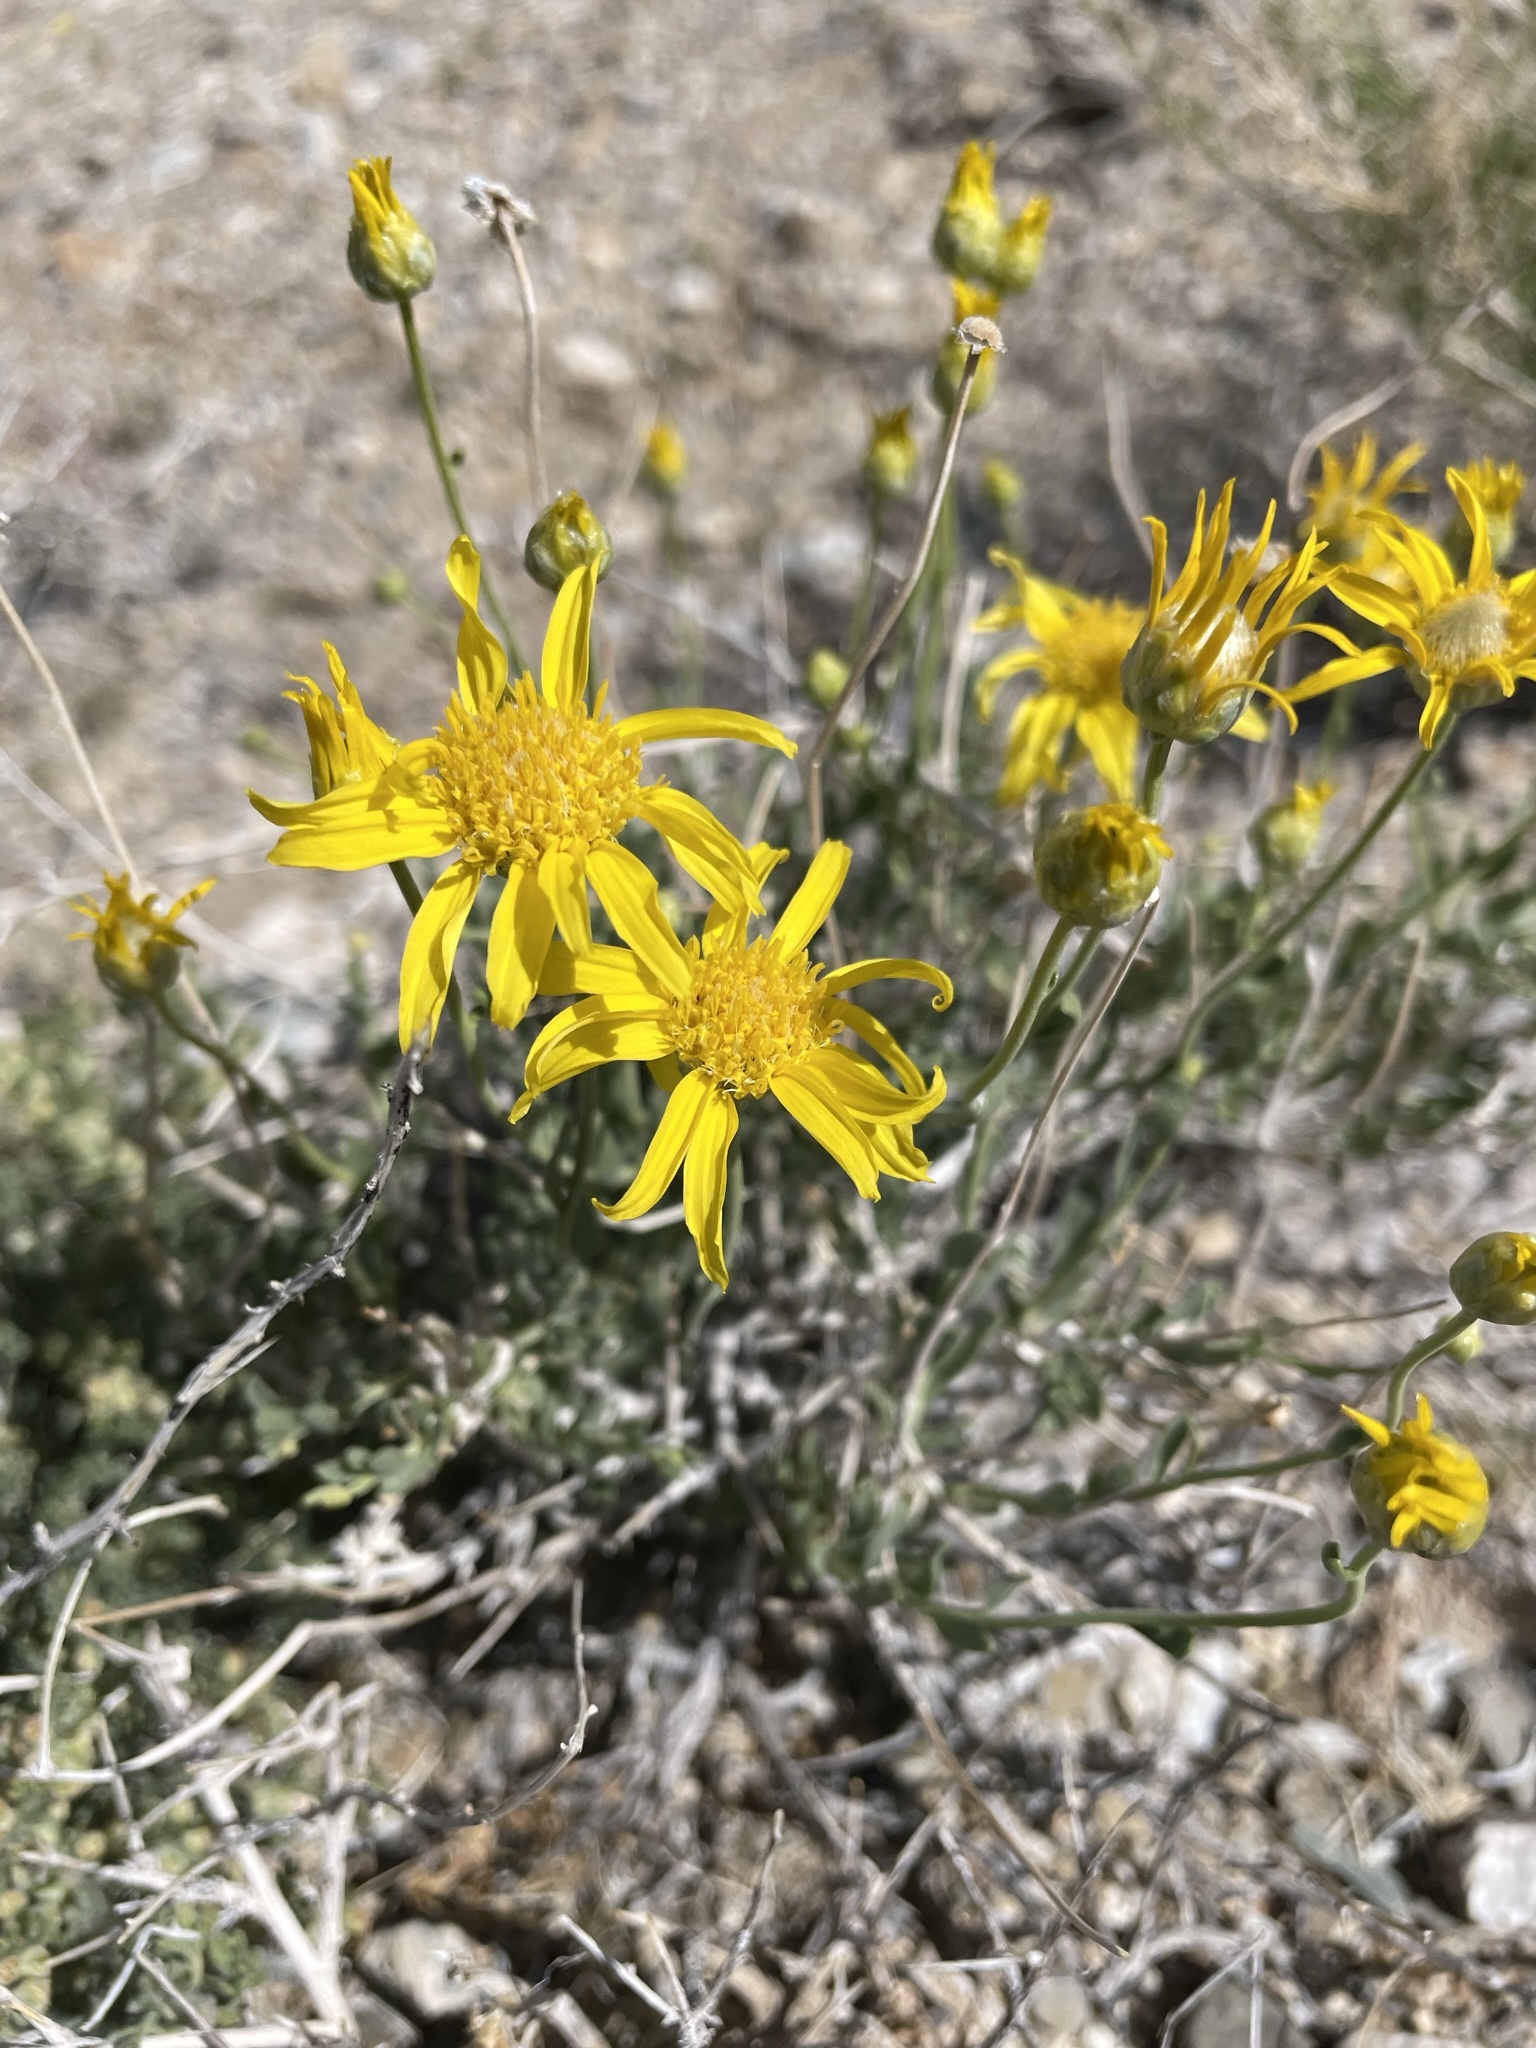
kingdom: Plantae
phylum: Tracheophyta
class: Magnoliopsida
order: Asterales
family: Asteraceae
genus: Acamptopappus
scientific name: Acamptopappus shockleyi
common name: Shockley's goldenhead
